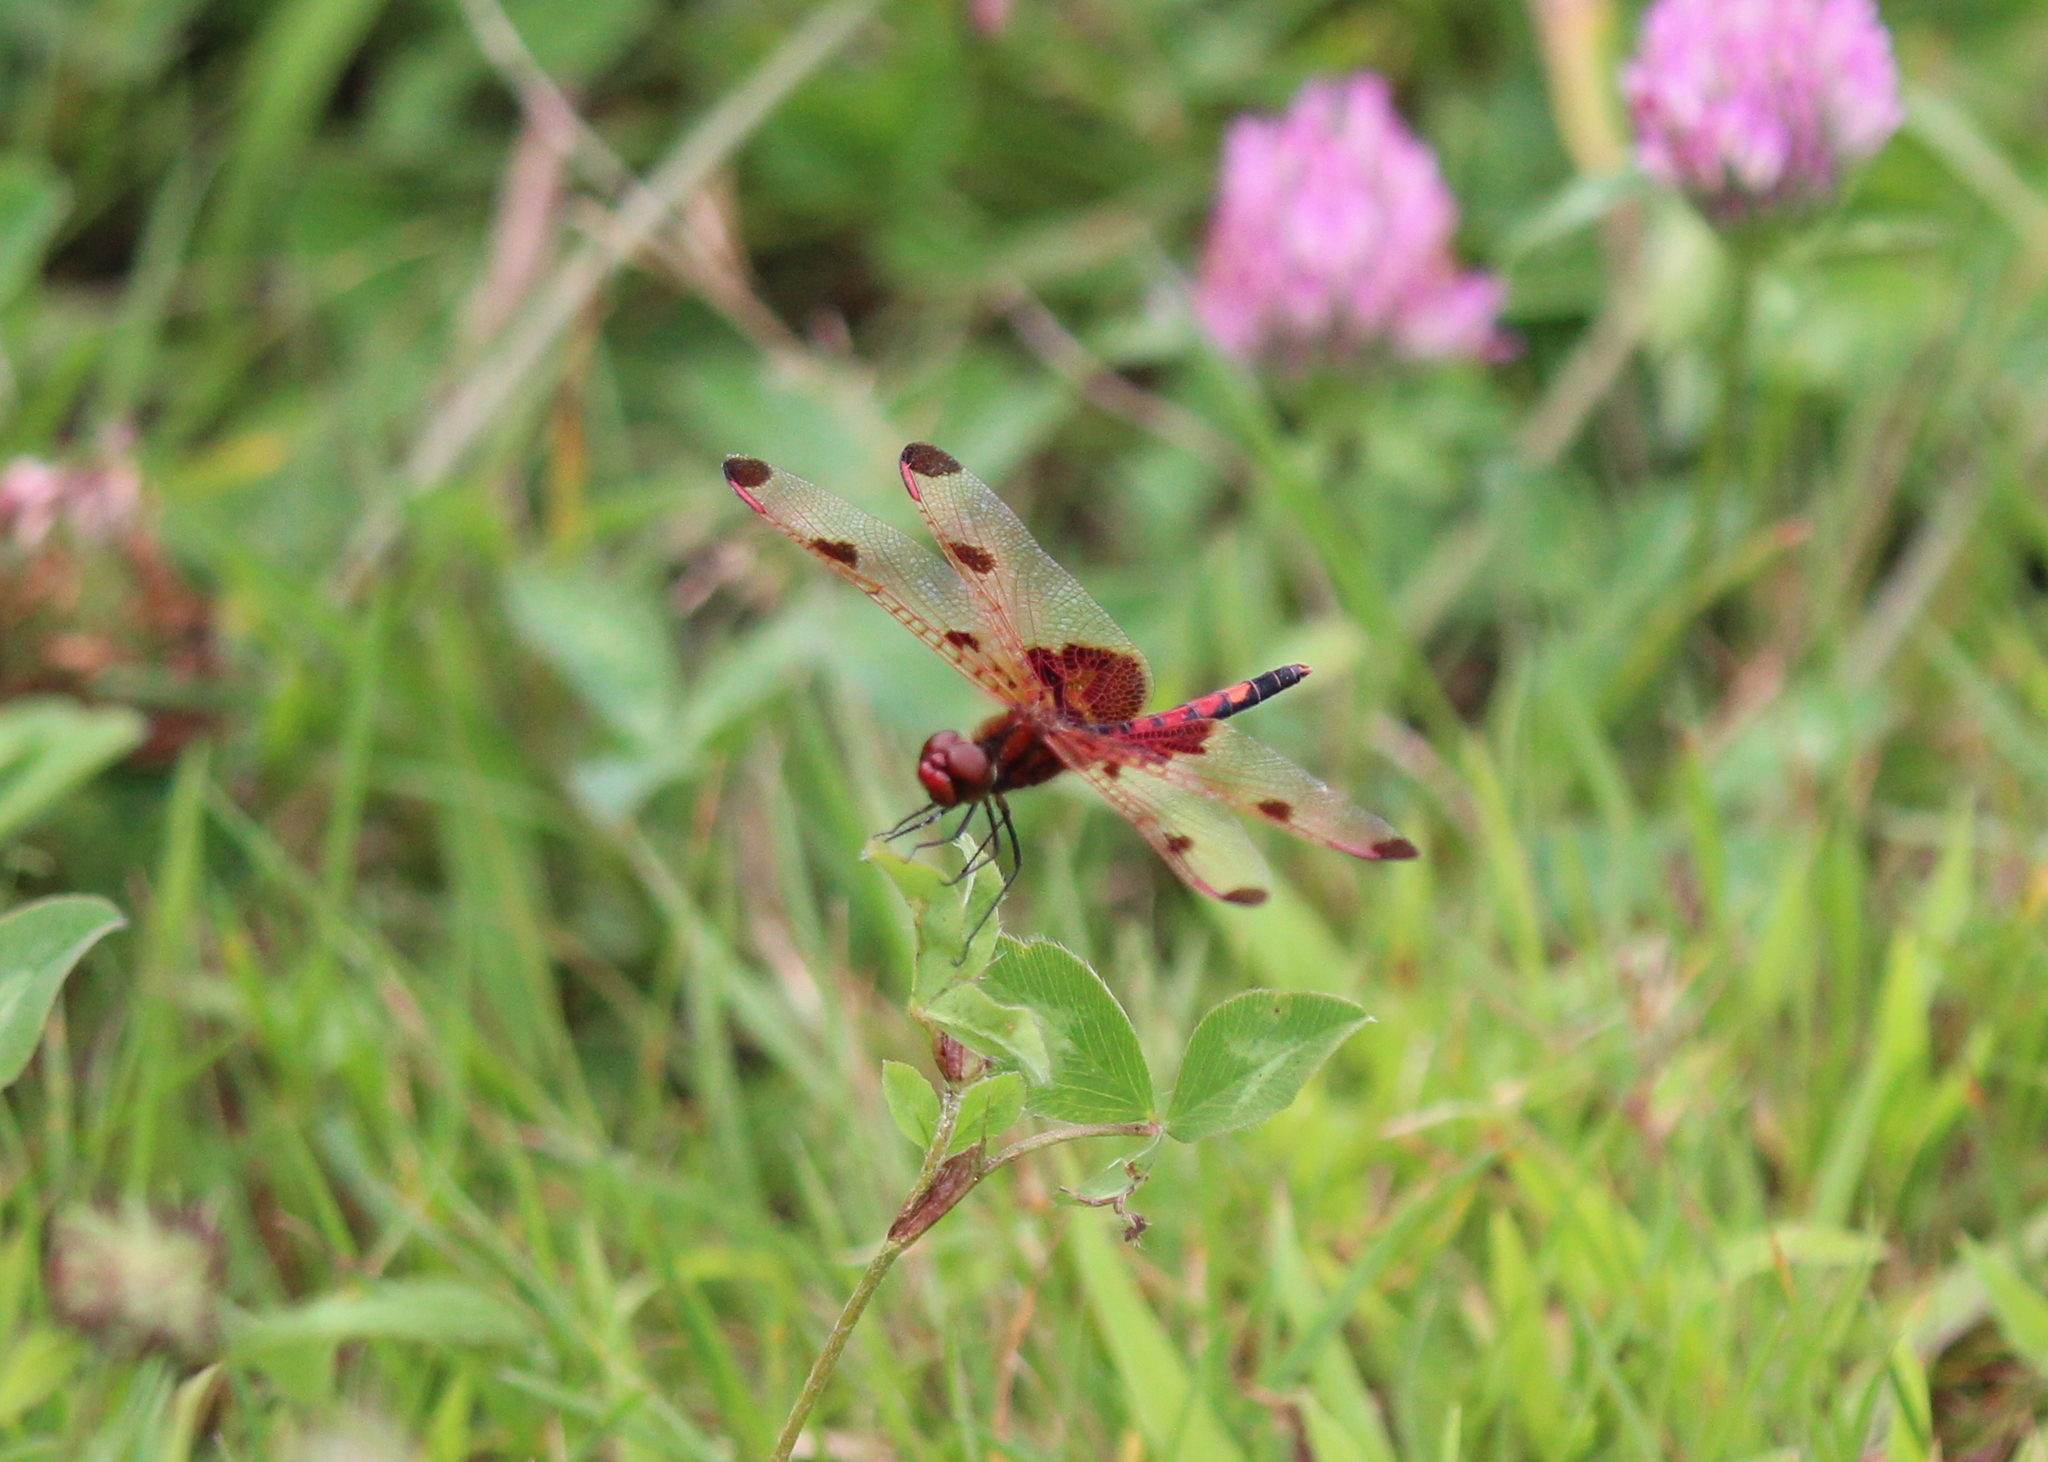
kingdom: Animalia
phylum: Arthropoda
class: Insecta
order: Odonata
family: Libellulidae
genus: Celithemis
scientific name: Celithemis elisa
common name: Calico pennant
